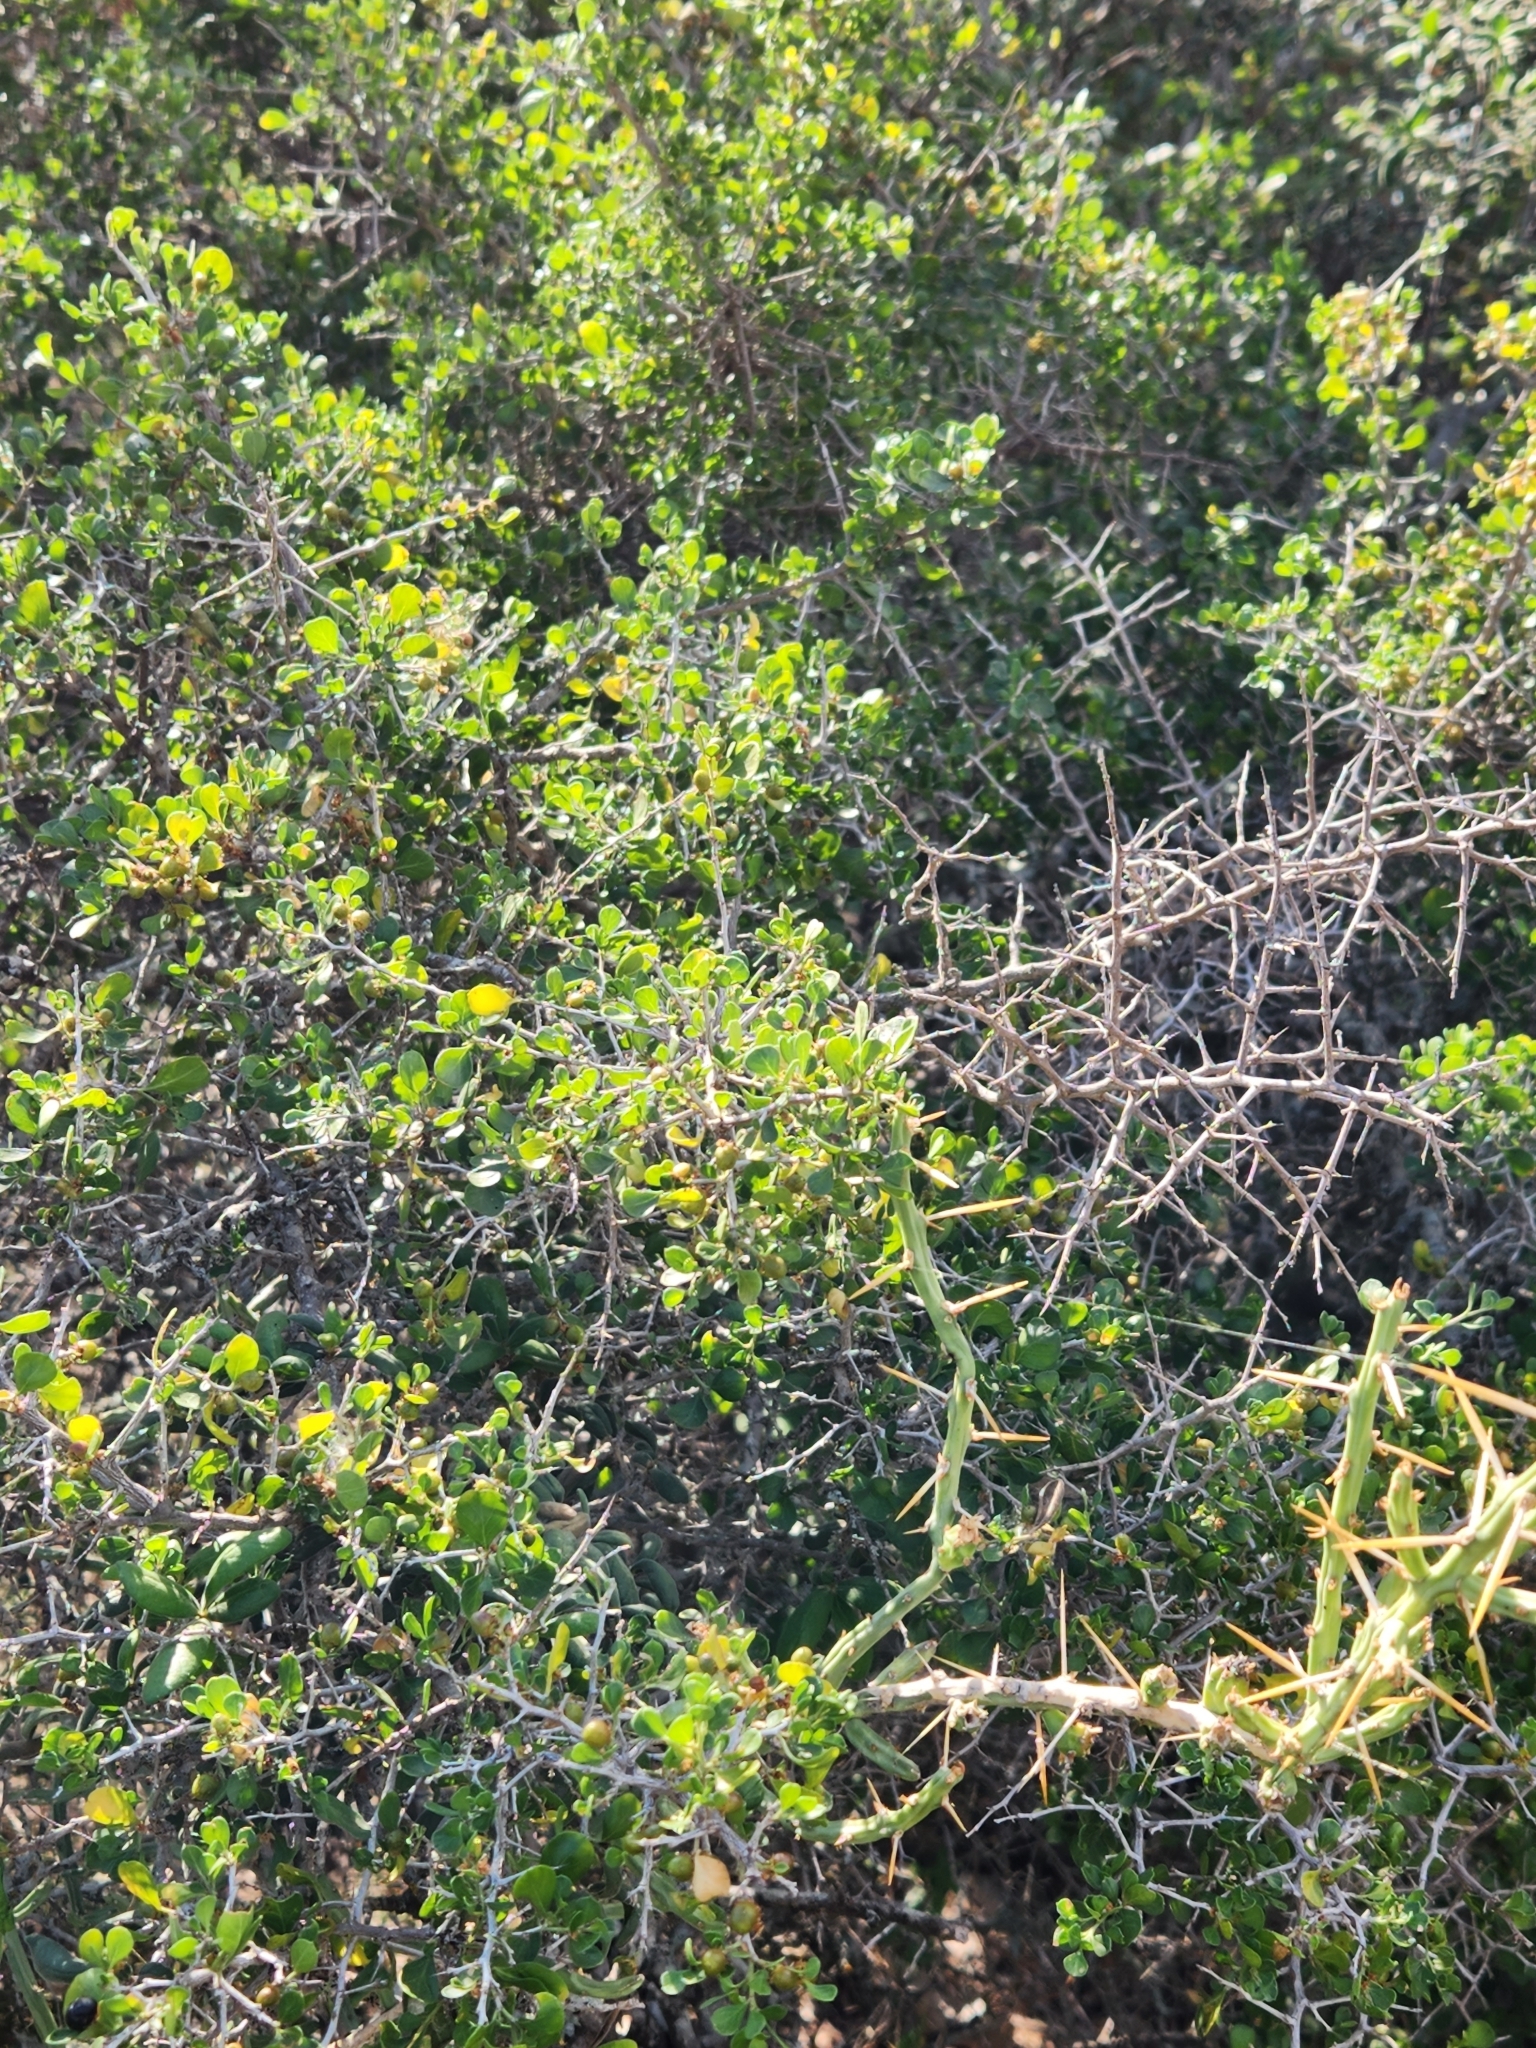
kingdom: Plantae
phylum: Tracheophyta
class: Magnoliopsida
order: Rosales
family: Rhamnaceae
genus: Condalia
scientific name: Condalia hookeri
